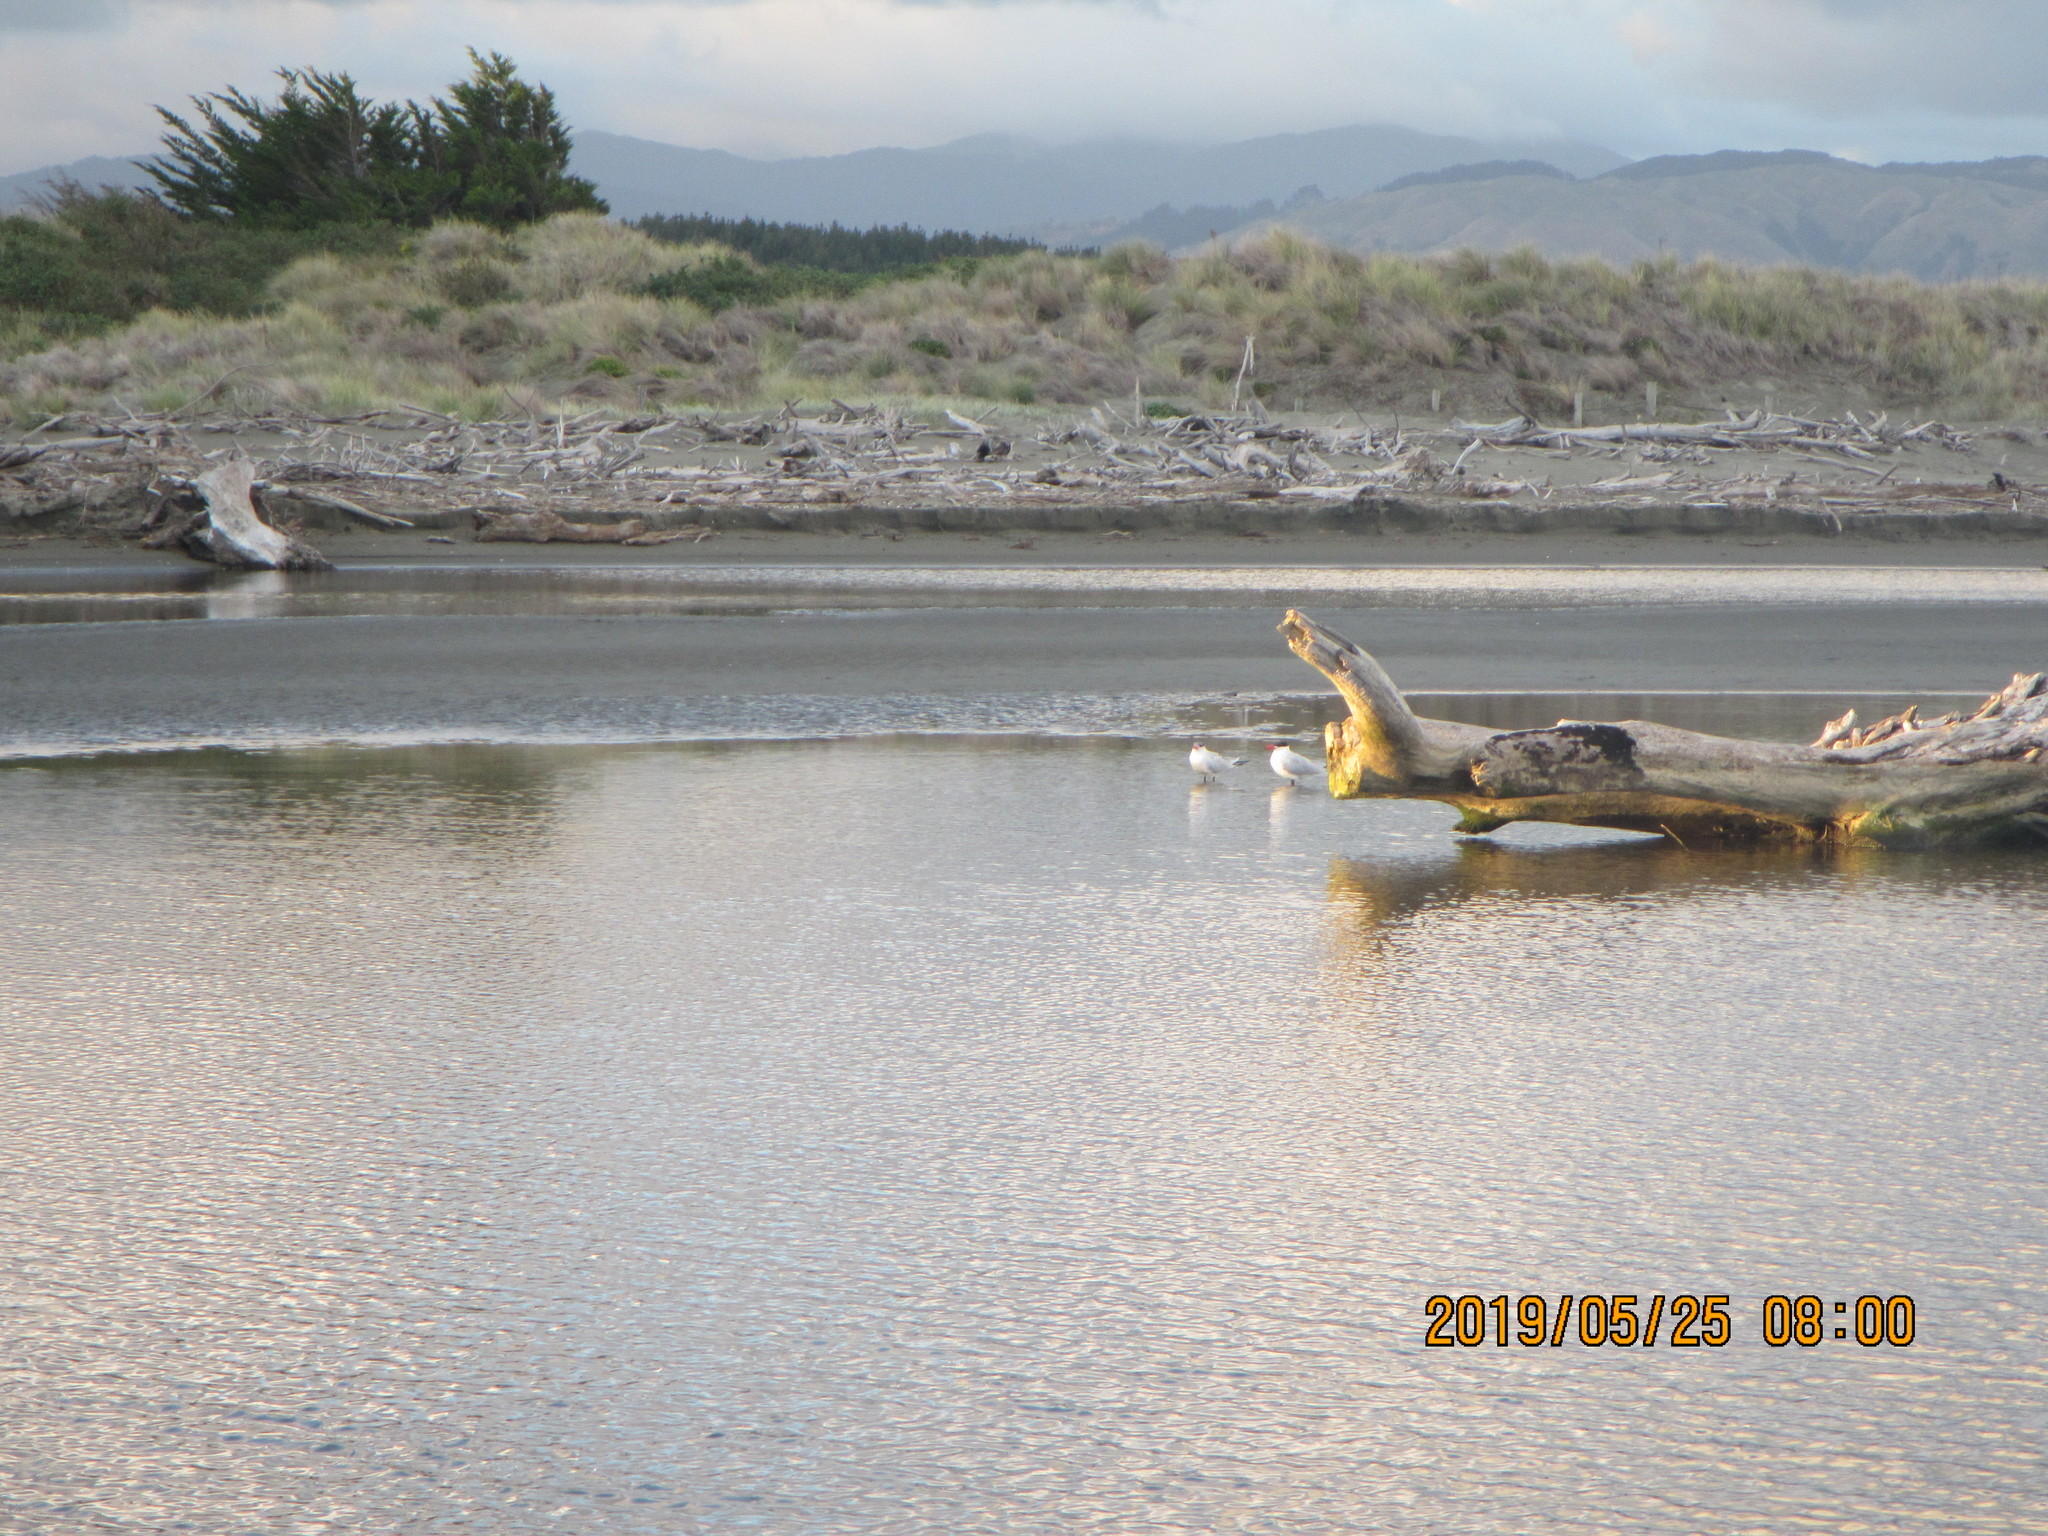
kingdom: Animalia
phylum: Chordata
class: Aves
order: Charadriiformes
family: Laridae
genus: Hydroprogne
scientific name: Hydroprogne caspia
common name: Caspian tern
